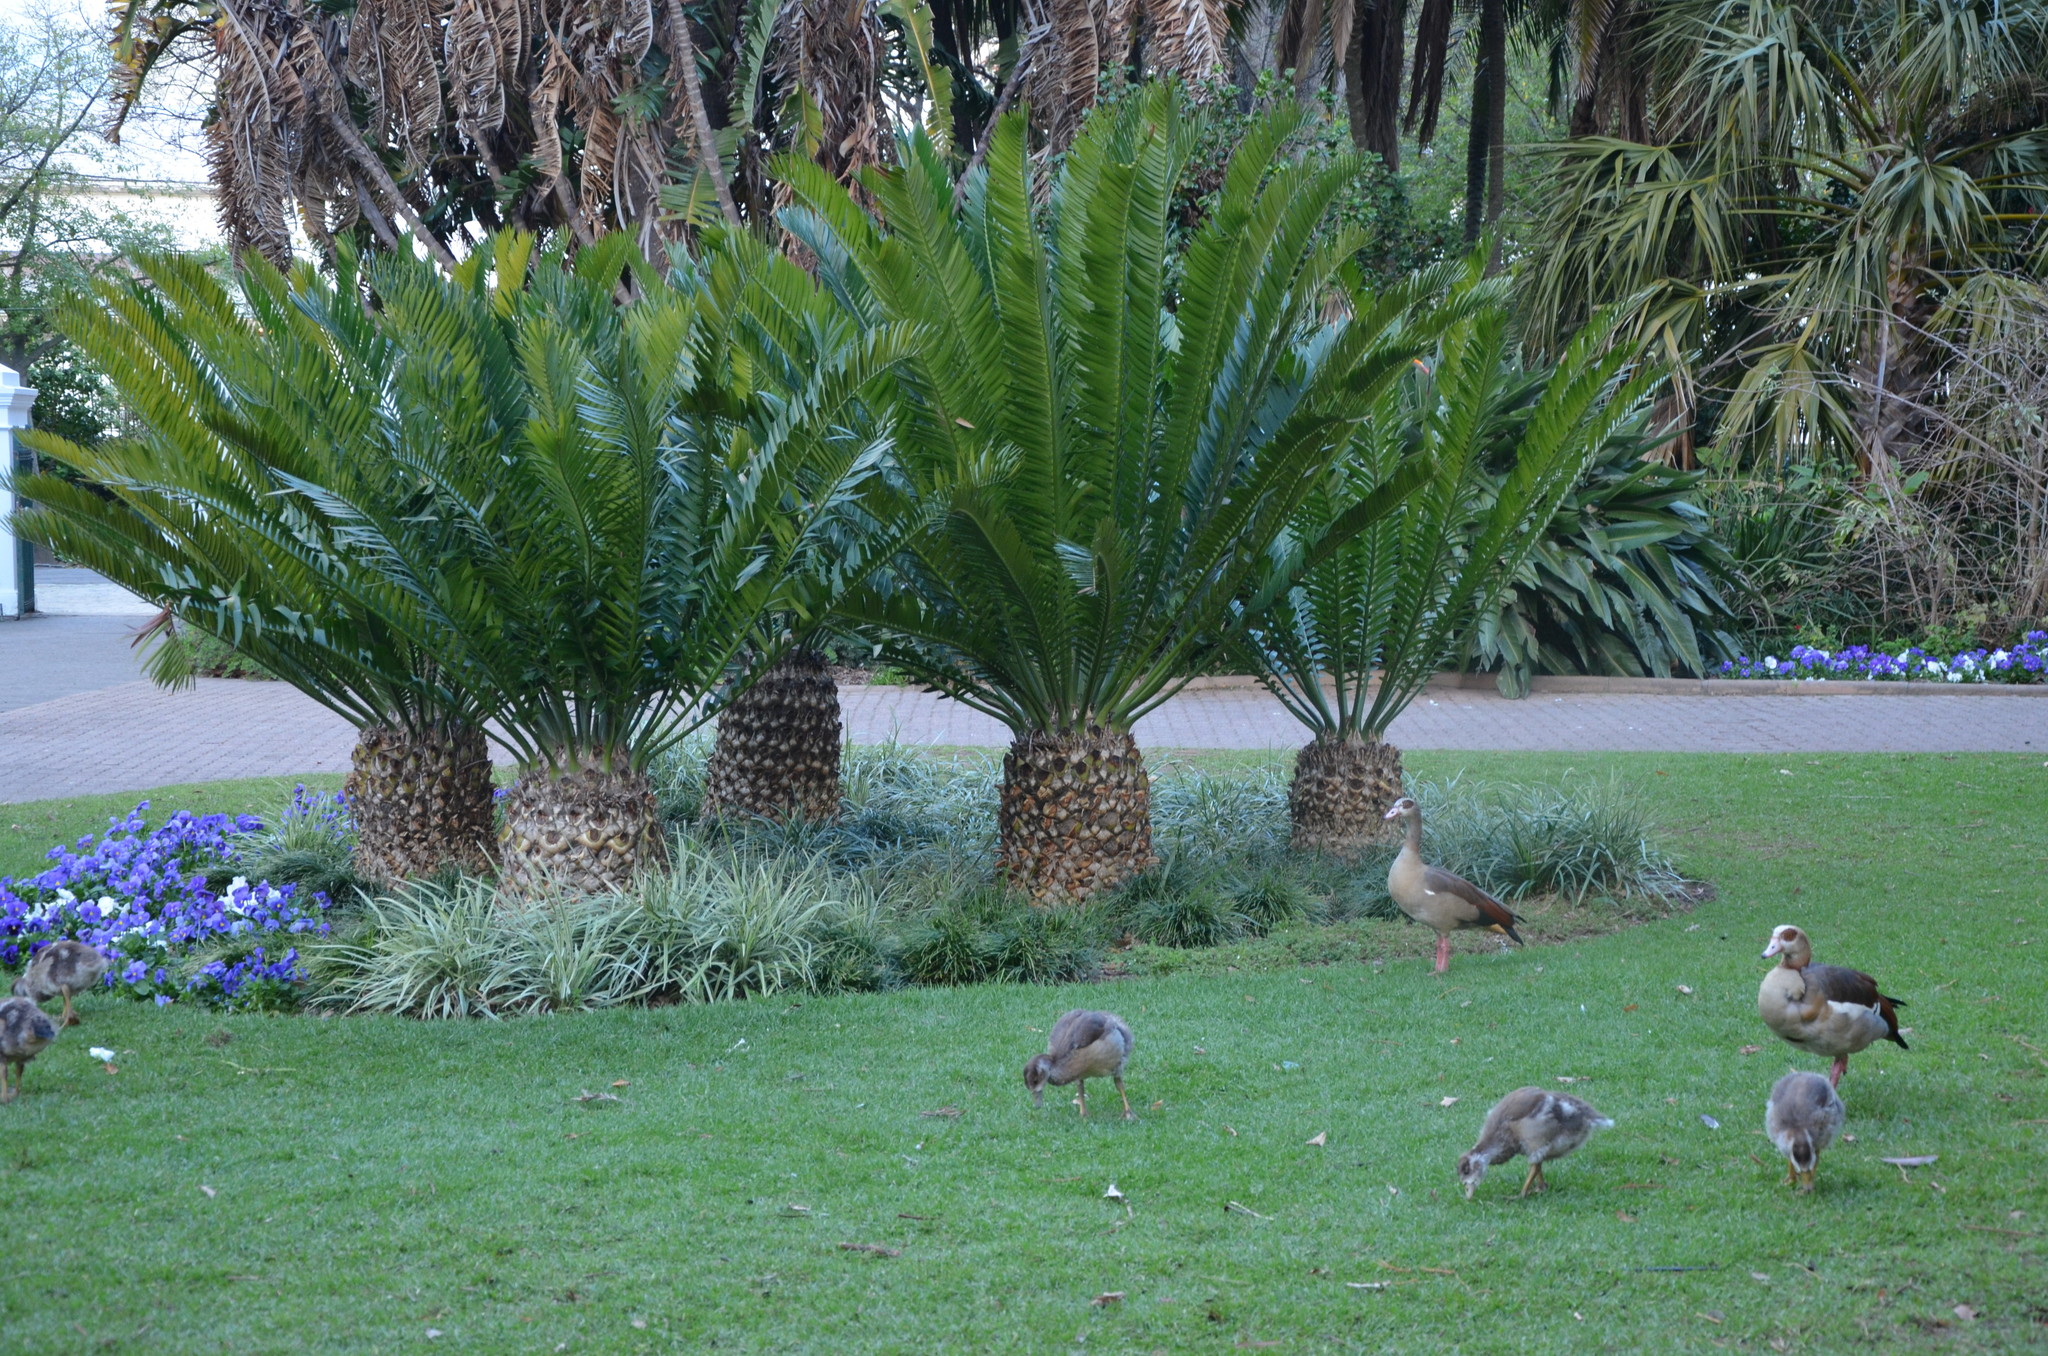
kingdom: Animalia
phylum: Chordata
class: Aves
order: Anseriformes
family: Anatidae
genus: Alopochen
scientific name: Alopochen aegyptiaca
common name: Egyptian goose
